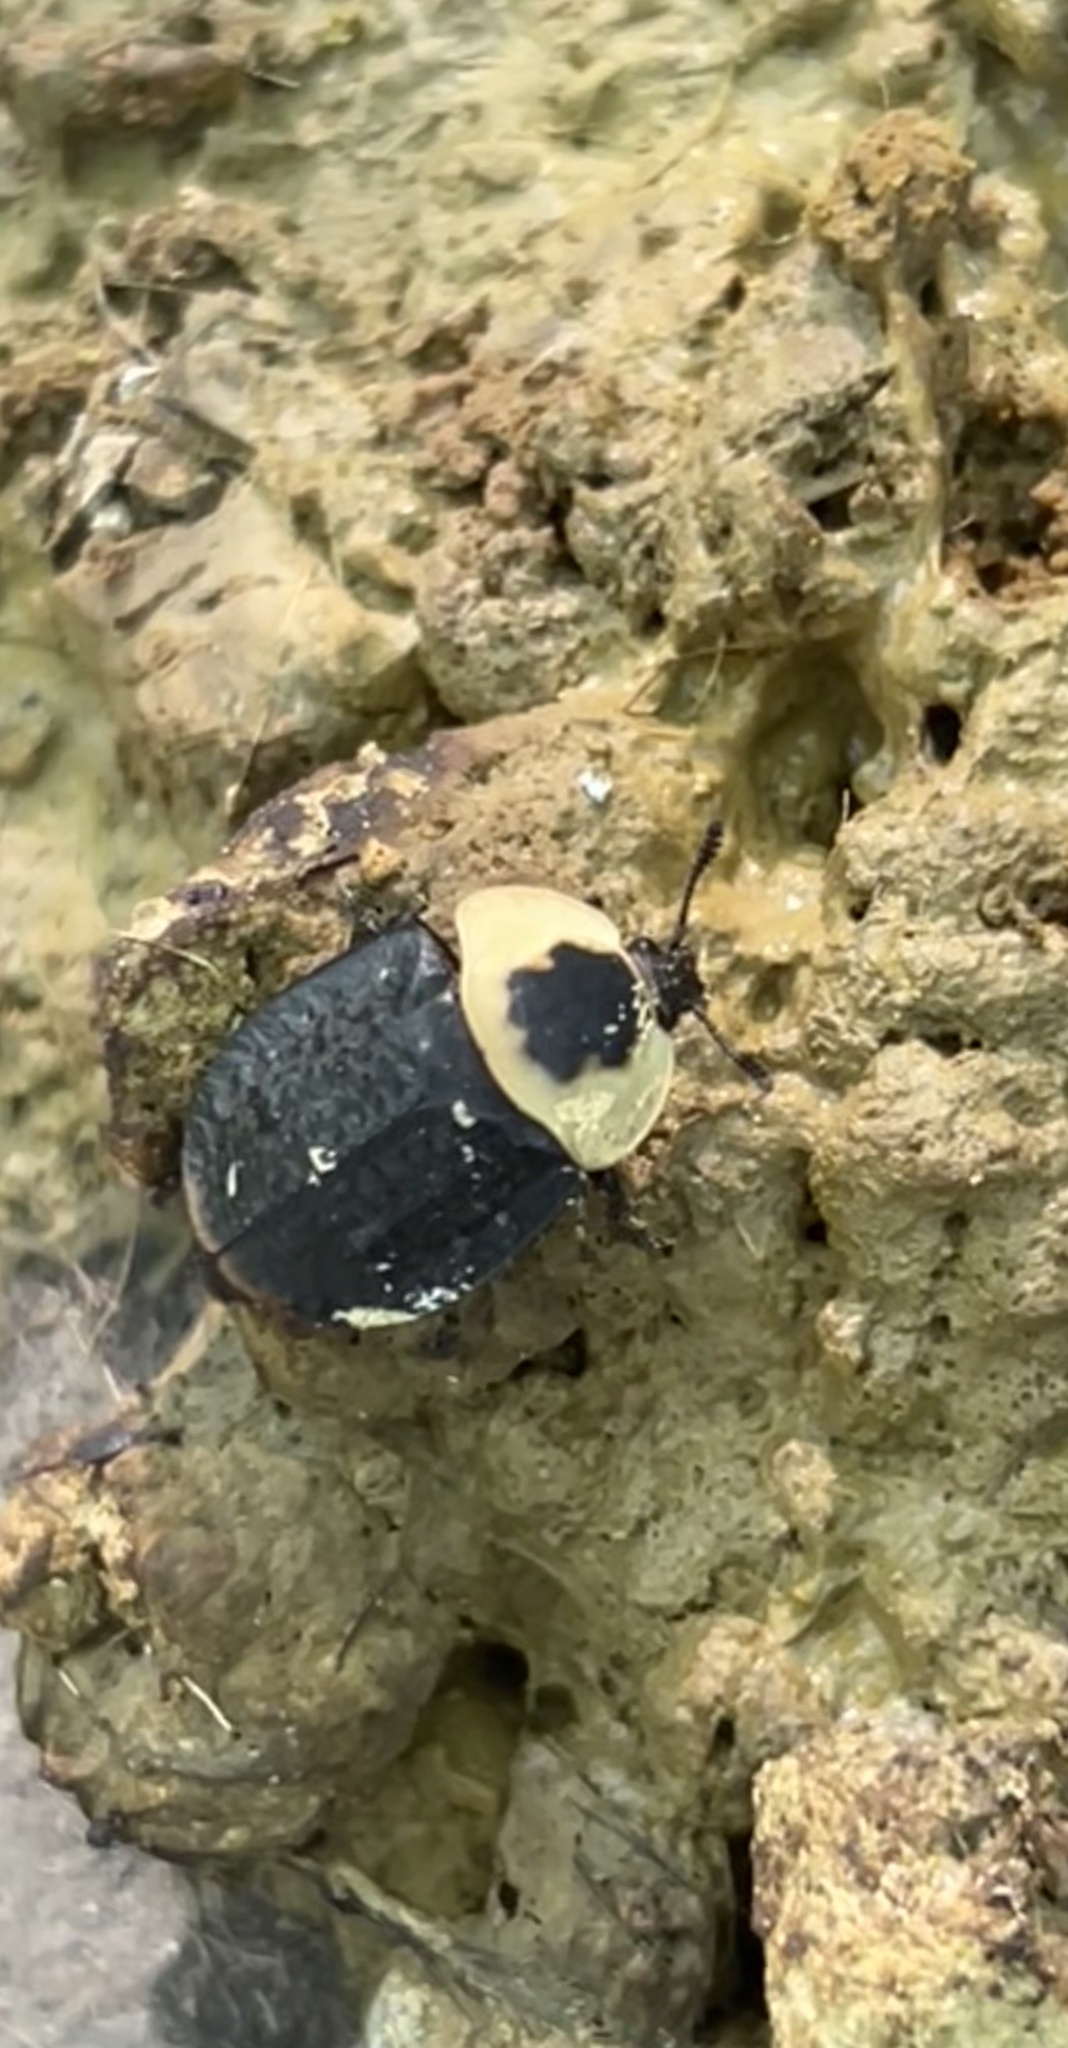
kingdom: Animalia
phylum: Arthropoda
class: Insecta
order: Coleoptera
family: Staphylinidae
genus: Necrophila
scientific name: Necrophila americana
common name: American carrion beetle
